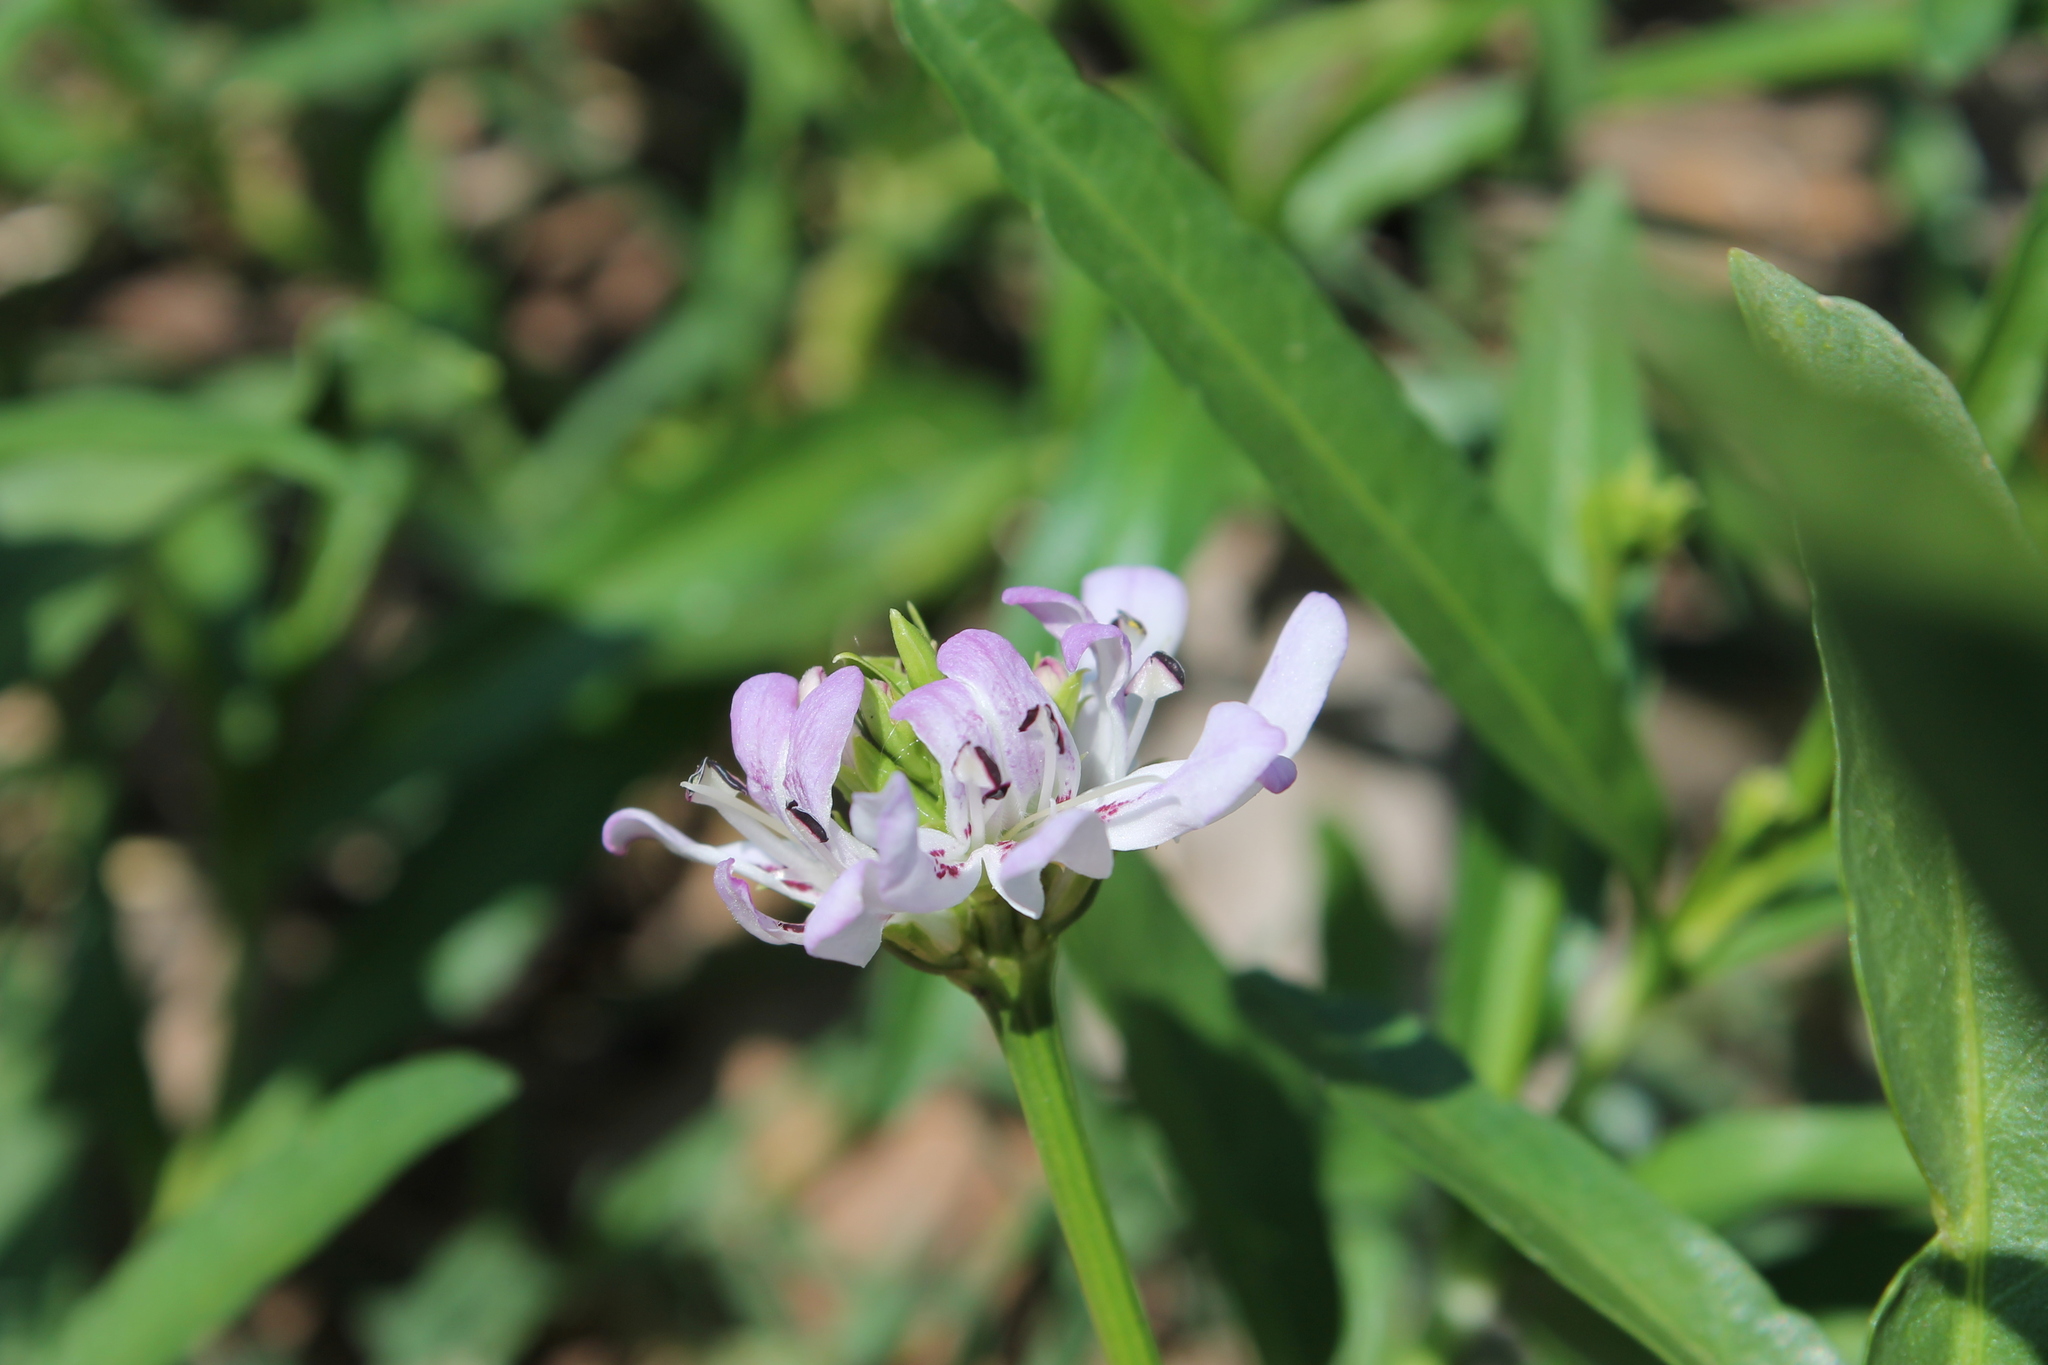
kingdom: Plantae
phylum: Tracheophyta
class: Magnoliopsida
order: Lamiales
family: Acanthaceae
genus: Dianthera
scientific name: Dianthera americana
